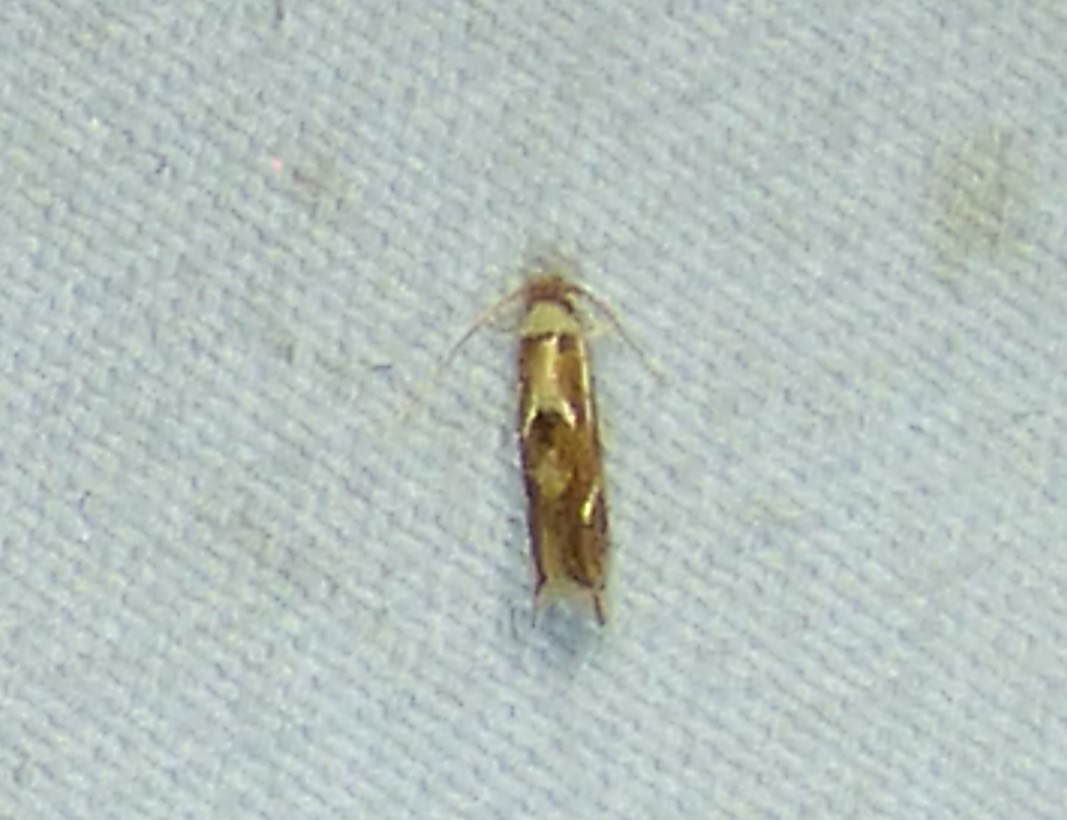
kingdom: Animalia
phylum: Arthropoda
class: Insecta
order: Lepidoptera
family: Lyonetiidae
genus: Philonome
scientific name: Philonome clemensella
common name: Clemen's philonome moth
